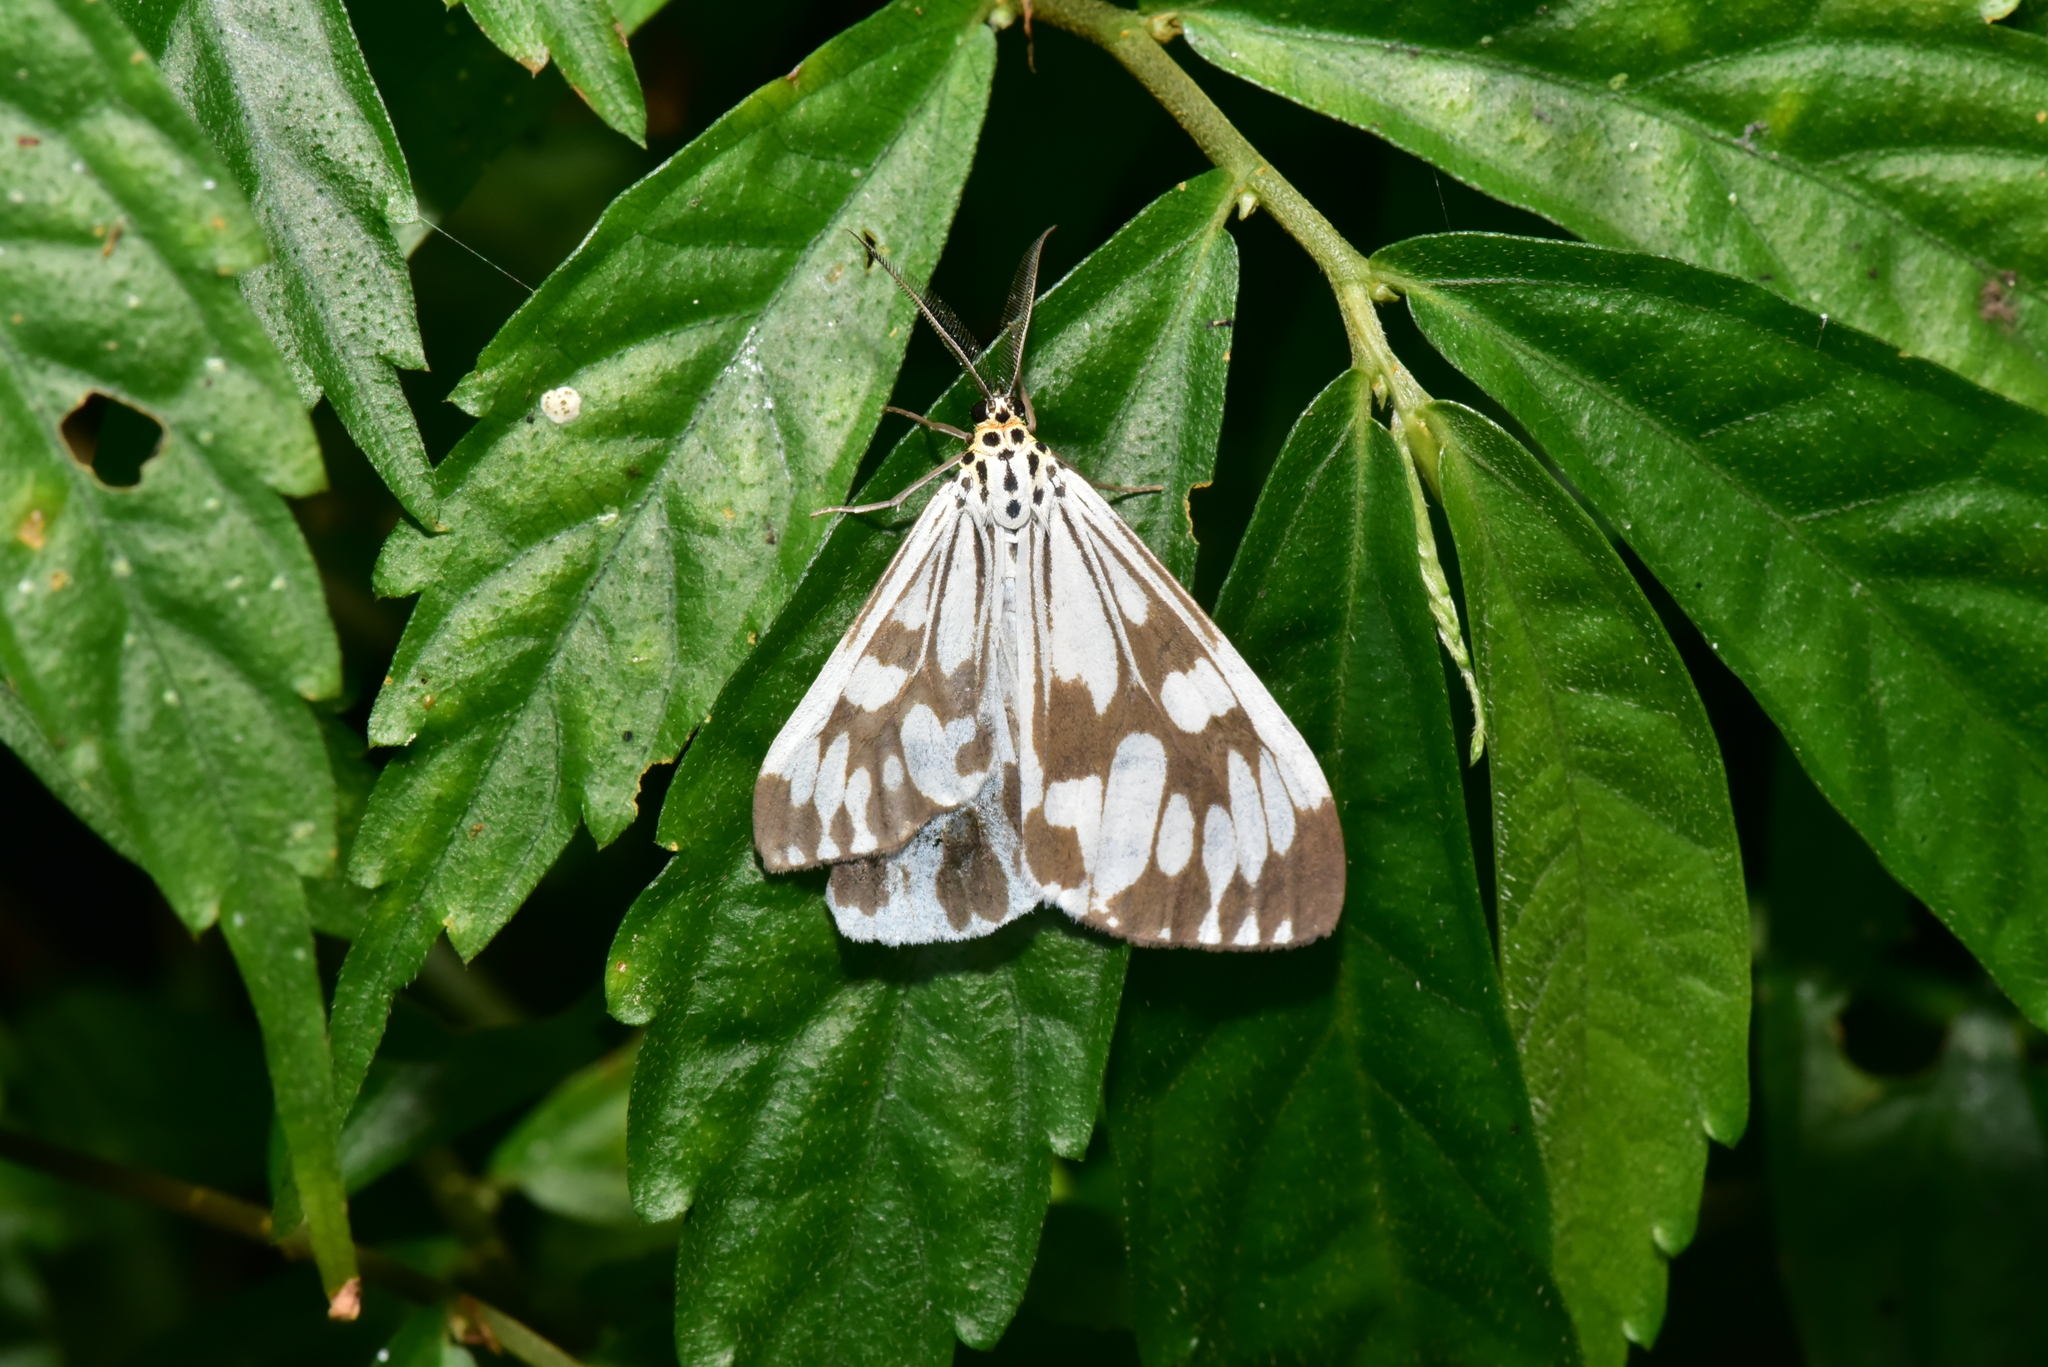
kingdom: Animalia
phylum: Arthropoda
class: Insecta
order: Lepidoptera
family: Erebidae
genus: Nyctemera
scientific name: Nyctemera adversata
